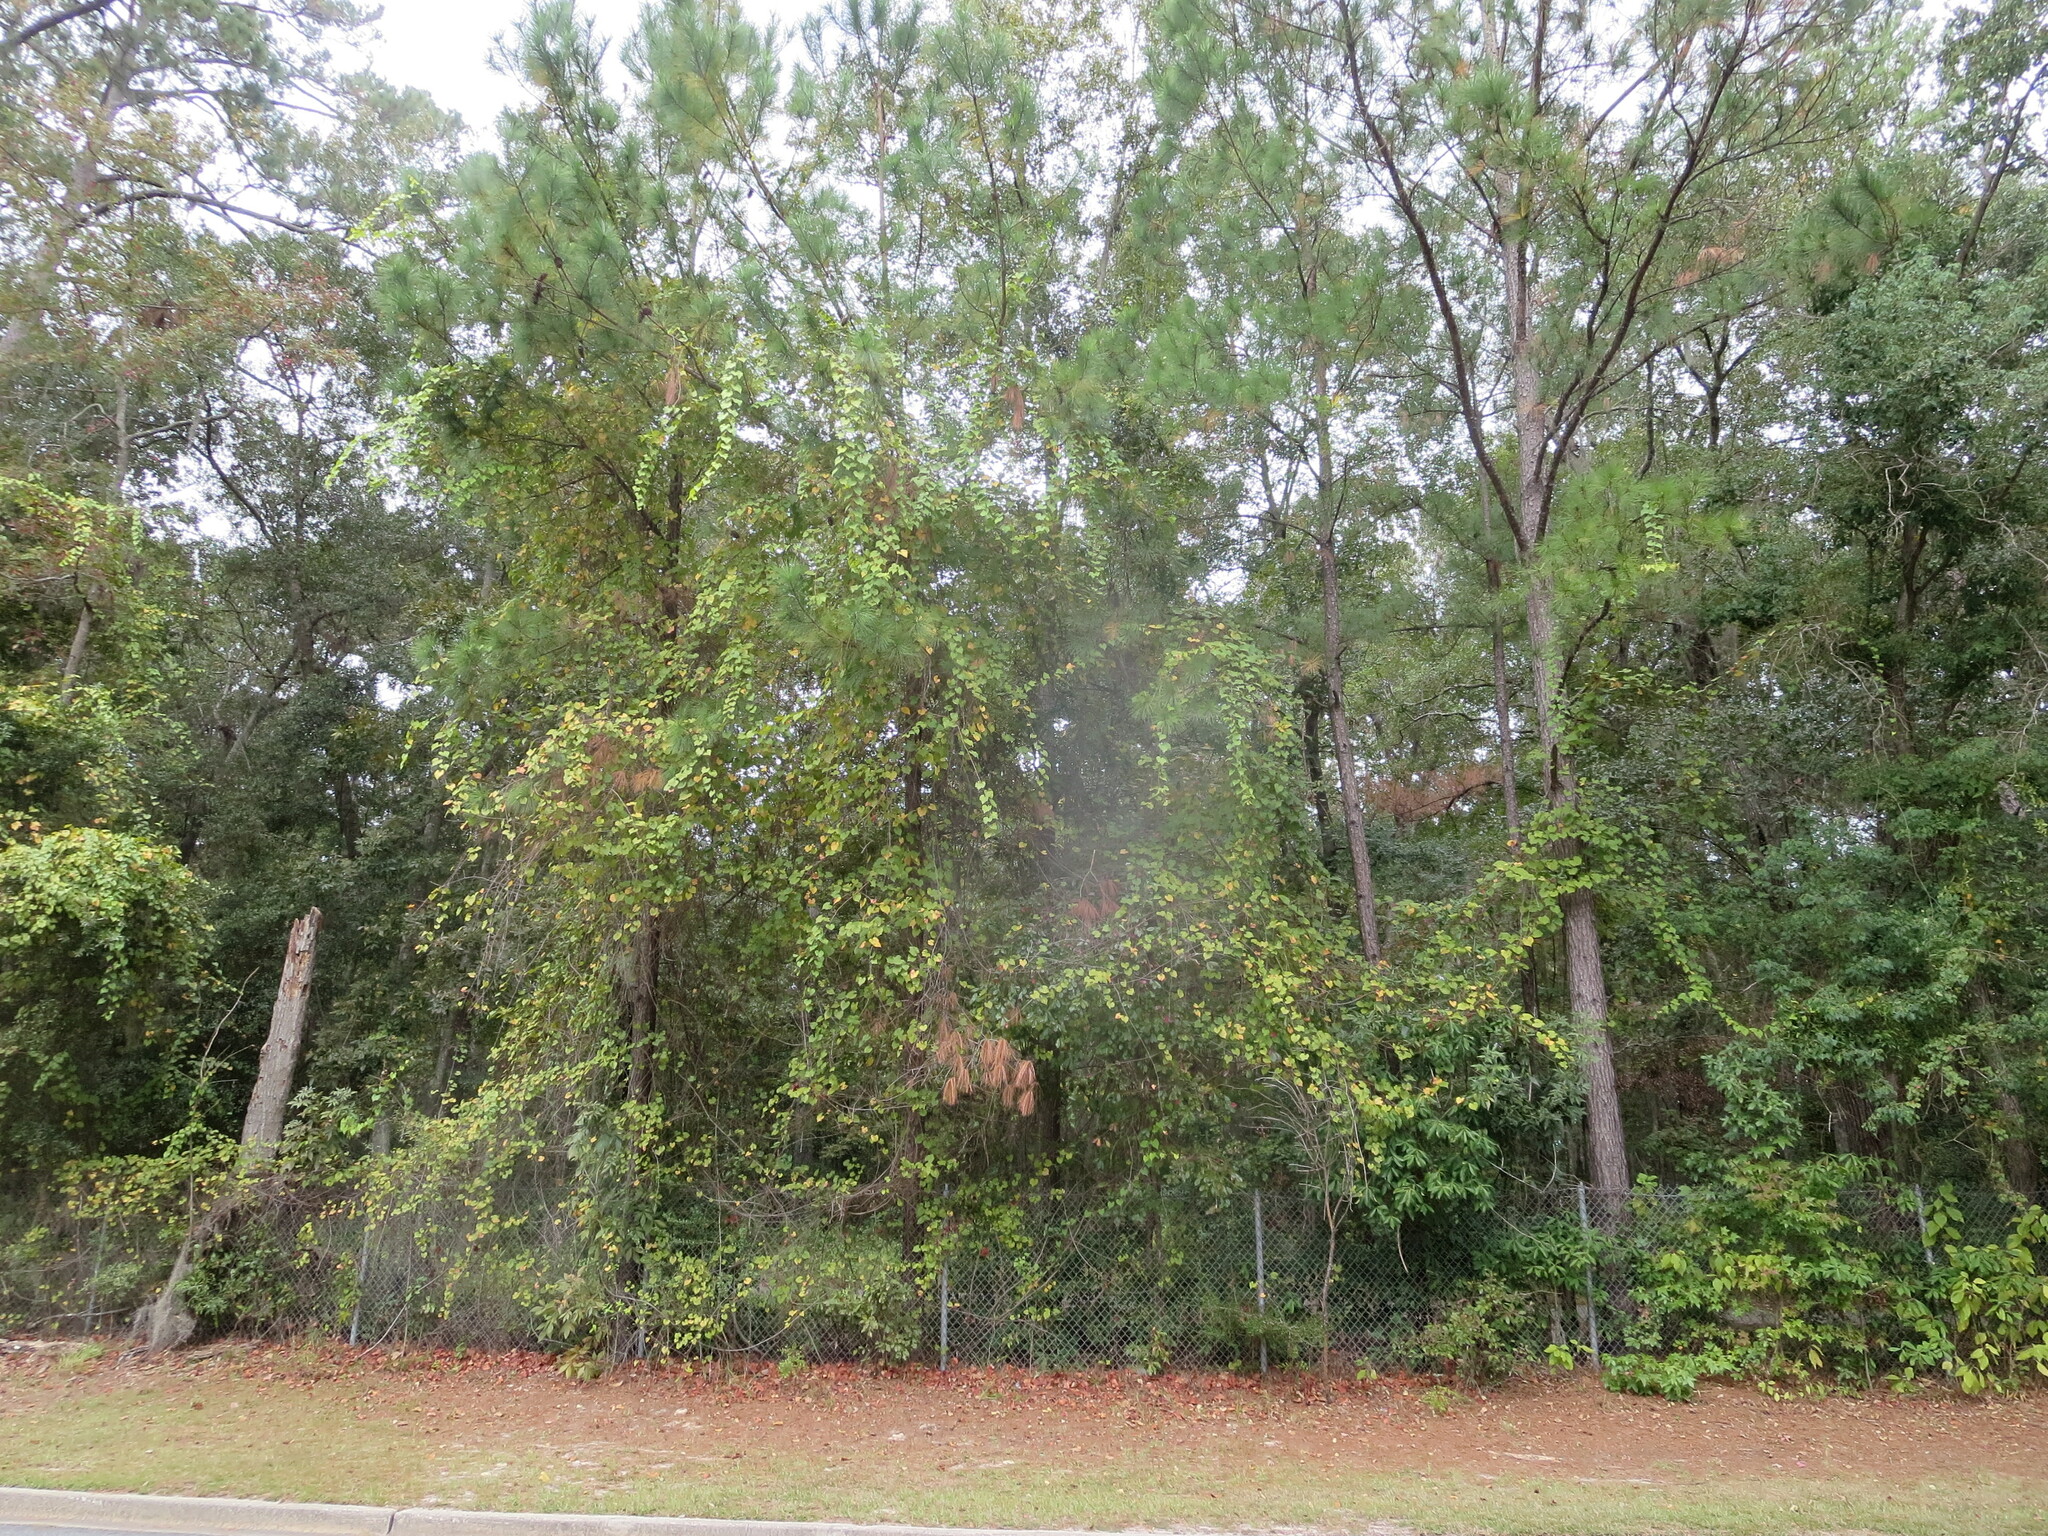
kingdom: Plantae
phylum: Tracheophyta
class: Magnoliopsida
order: Vitales
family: Vitaceae
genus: Vitis
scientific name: Vitis rotundifolia
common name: Muscadine grape
